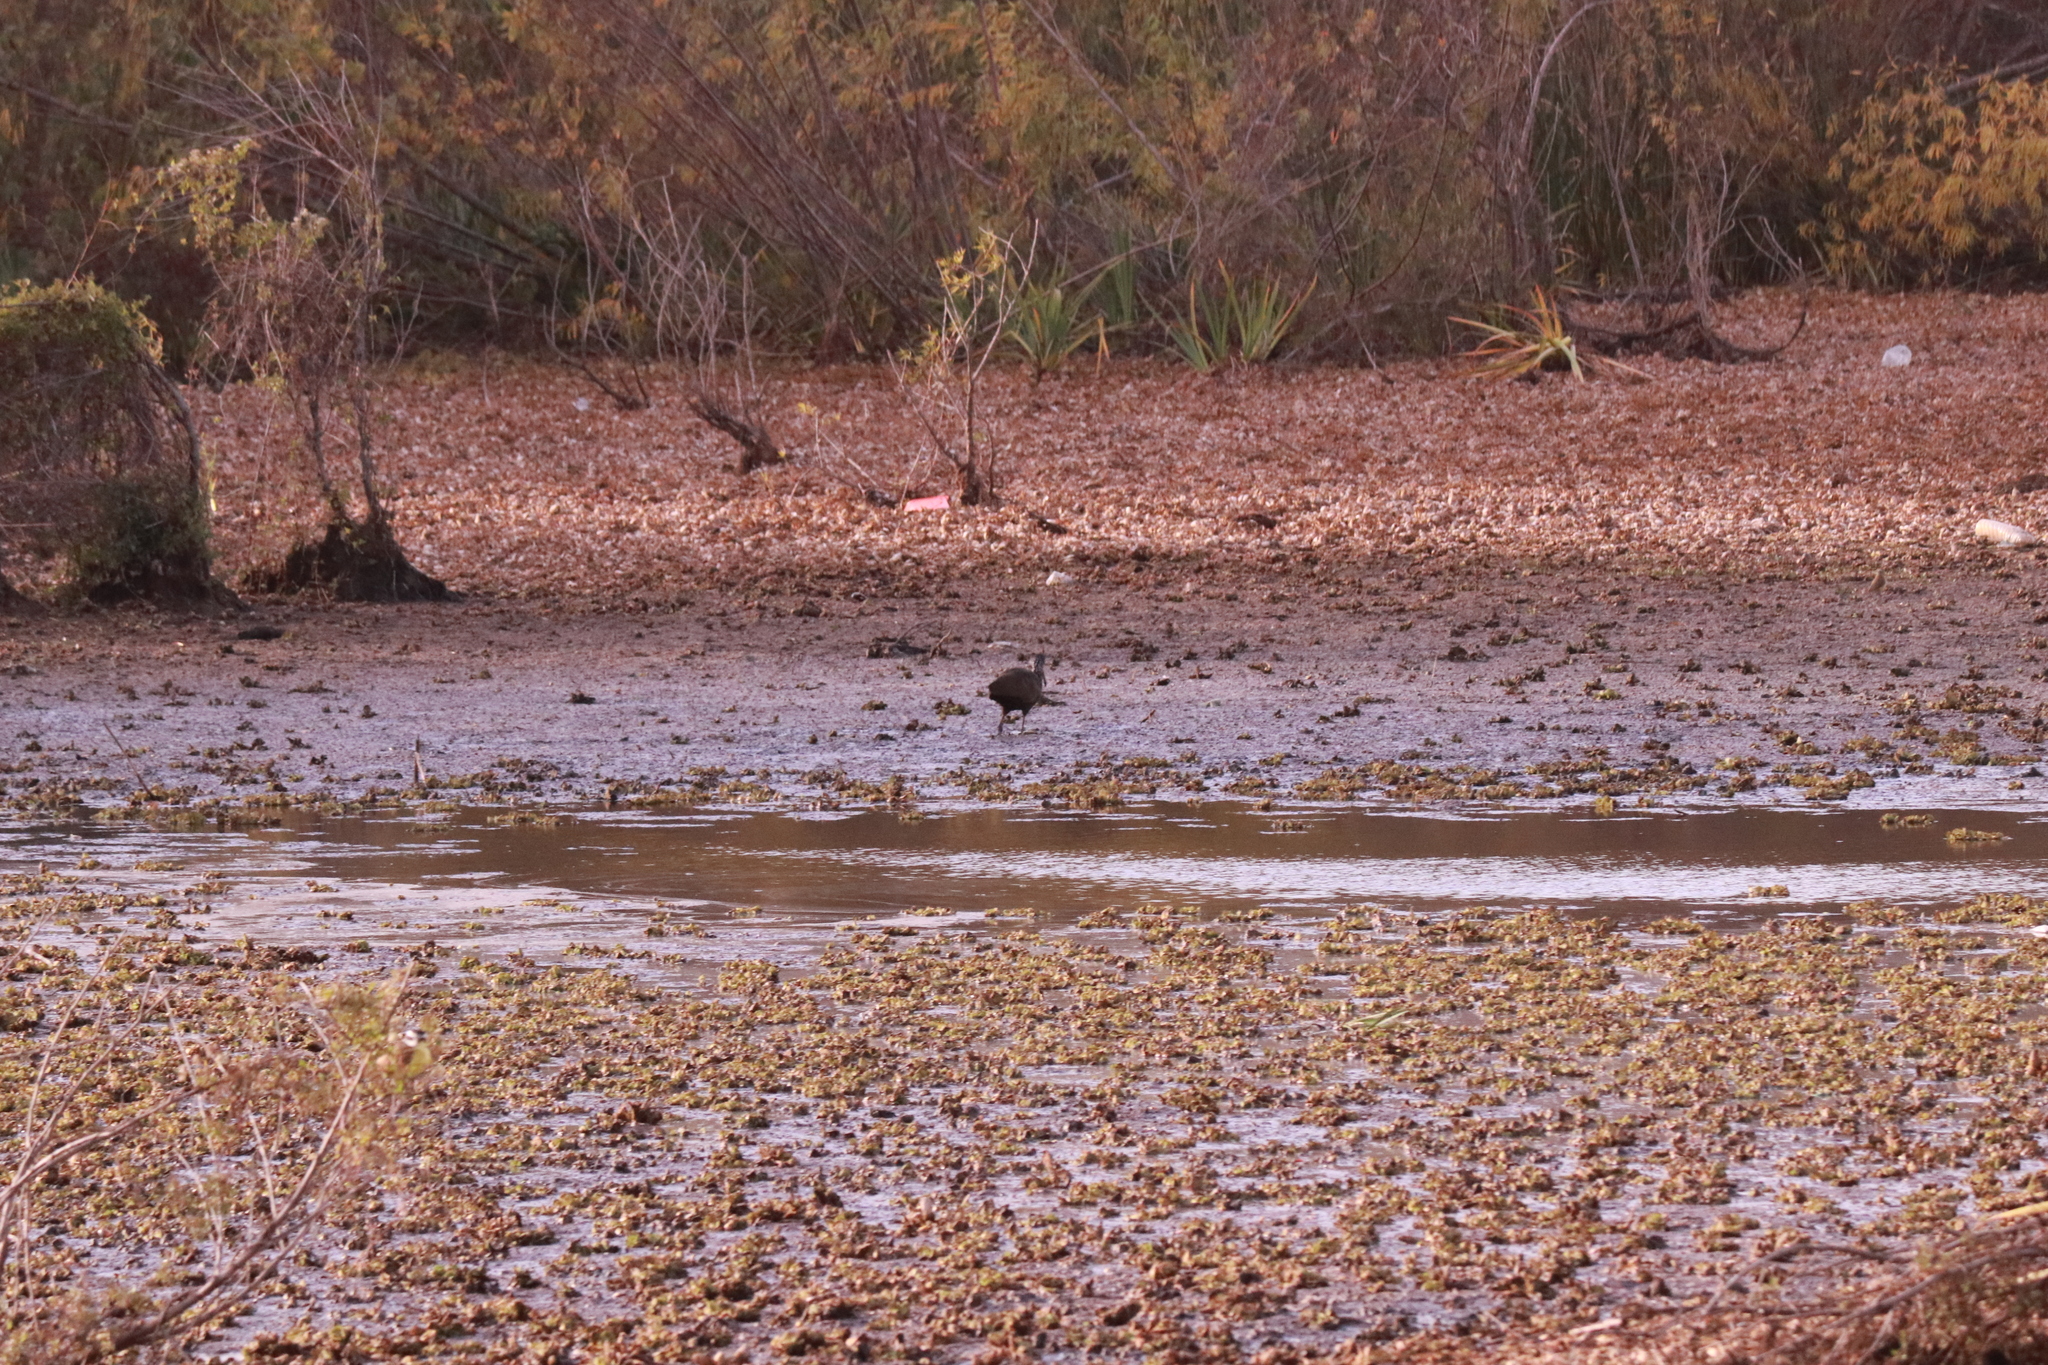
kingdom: Animalia
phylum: Chordata
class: Aves
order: Gruiformes
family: Aramidae
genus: Aramus
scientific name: Aramus guarauna
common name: Limpkin
